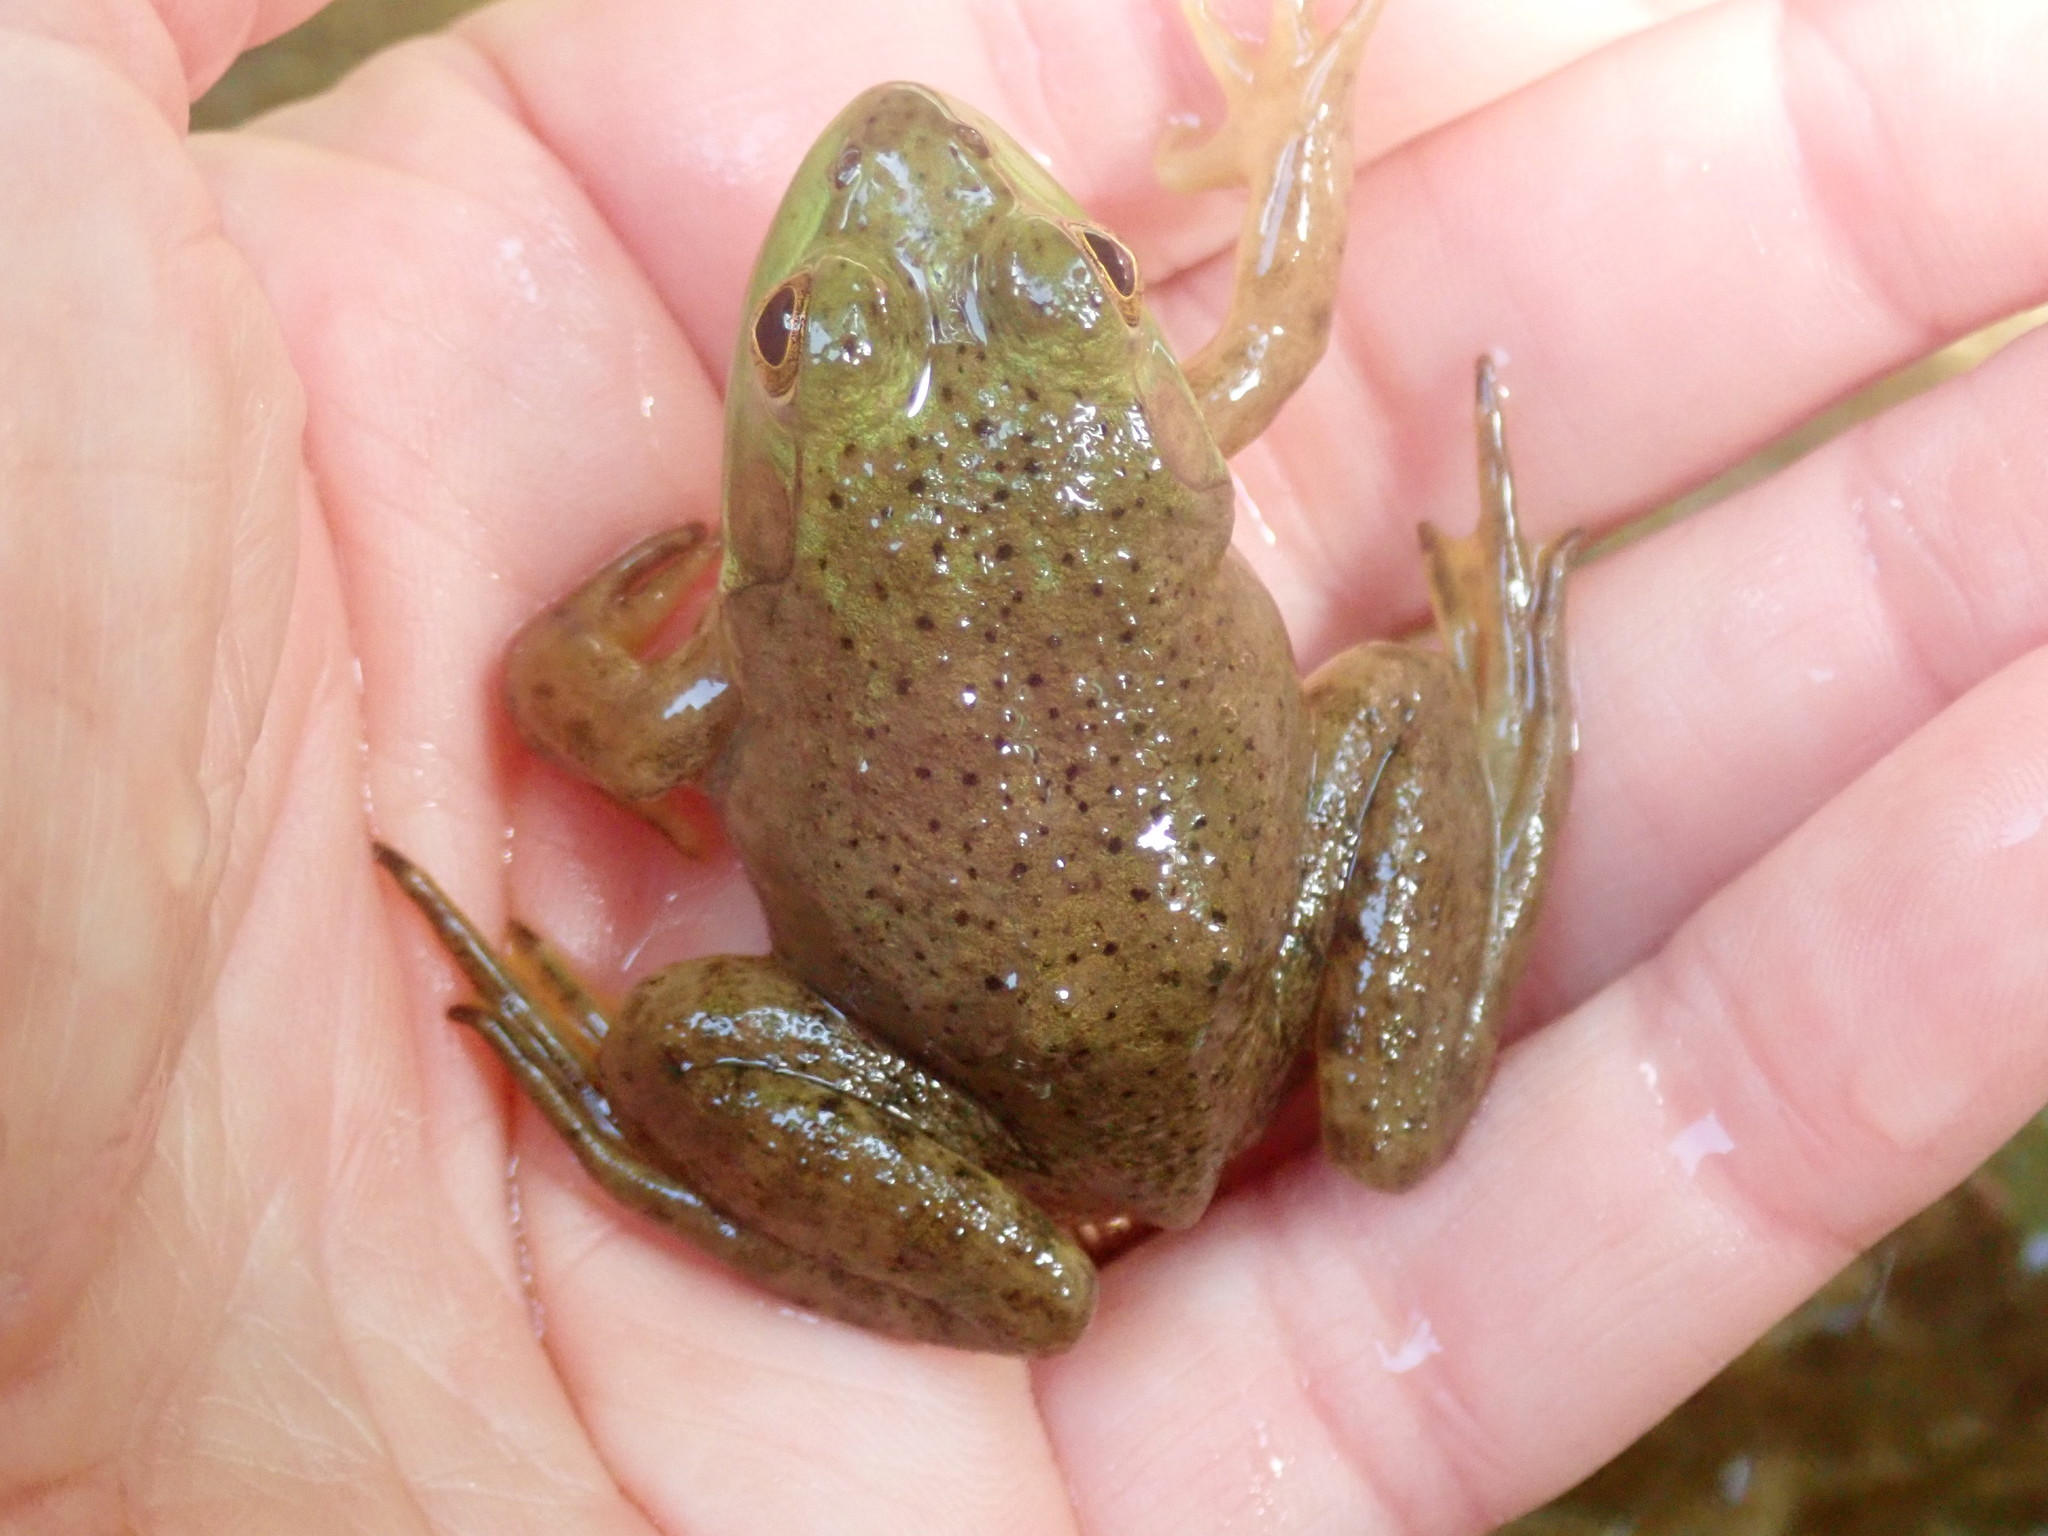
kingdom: Animalia
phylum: Chordata
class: Amphibia
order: Anura
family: Ranidae
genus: Lithobates
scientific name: Lithobates catesbeianus
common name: American bullfrog
